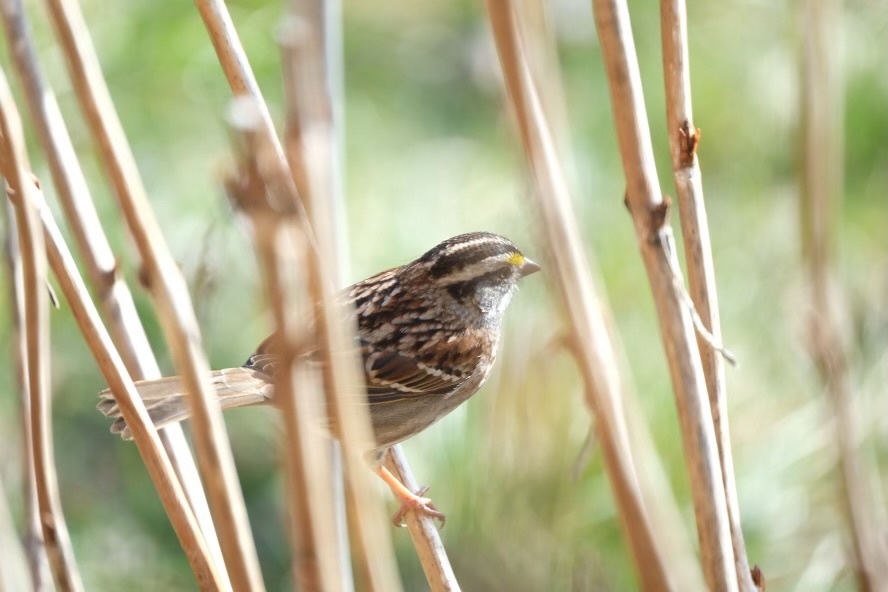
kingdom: Animalia
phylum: Chordata
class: Aves
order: Passeriformes
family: Passerellidae
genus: Zonotrichia
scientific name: Zonotrichia albicollis
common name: White-throated sparrow
